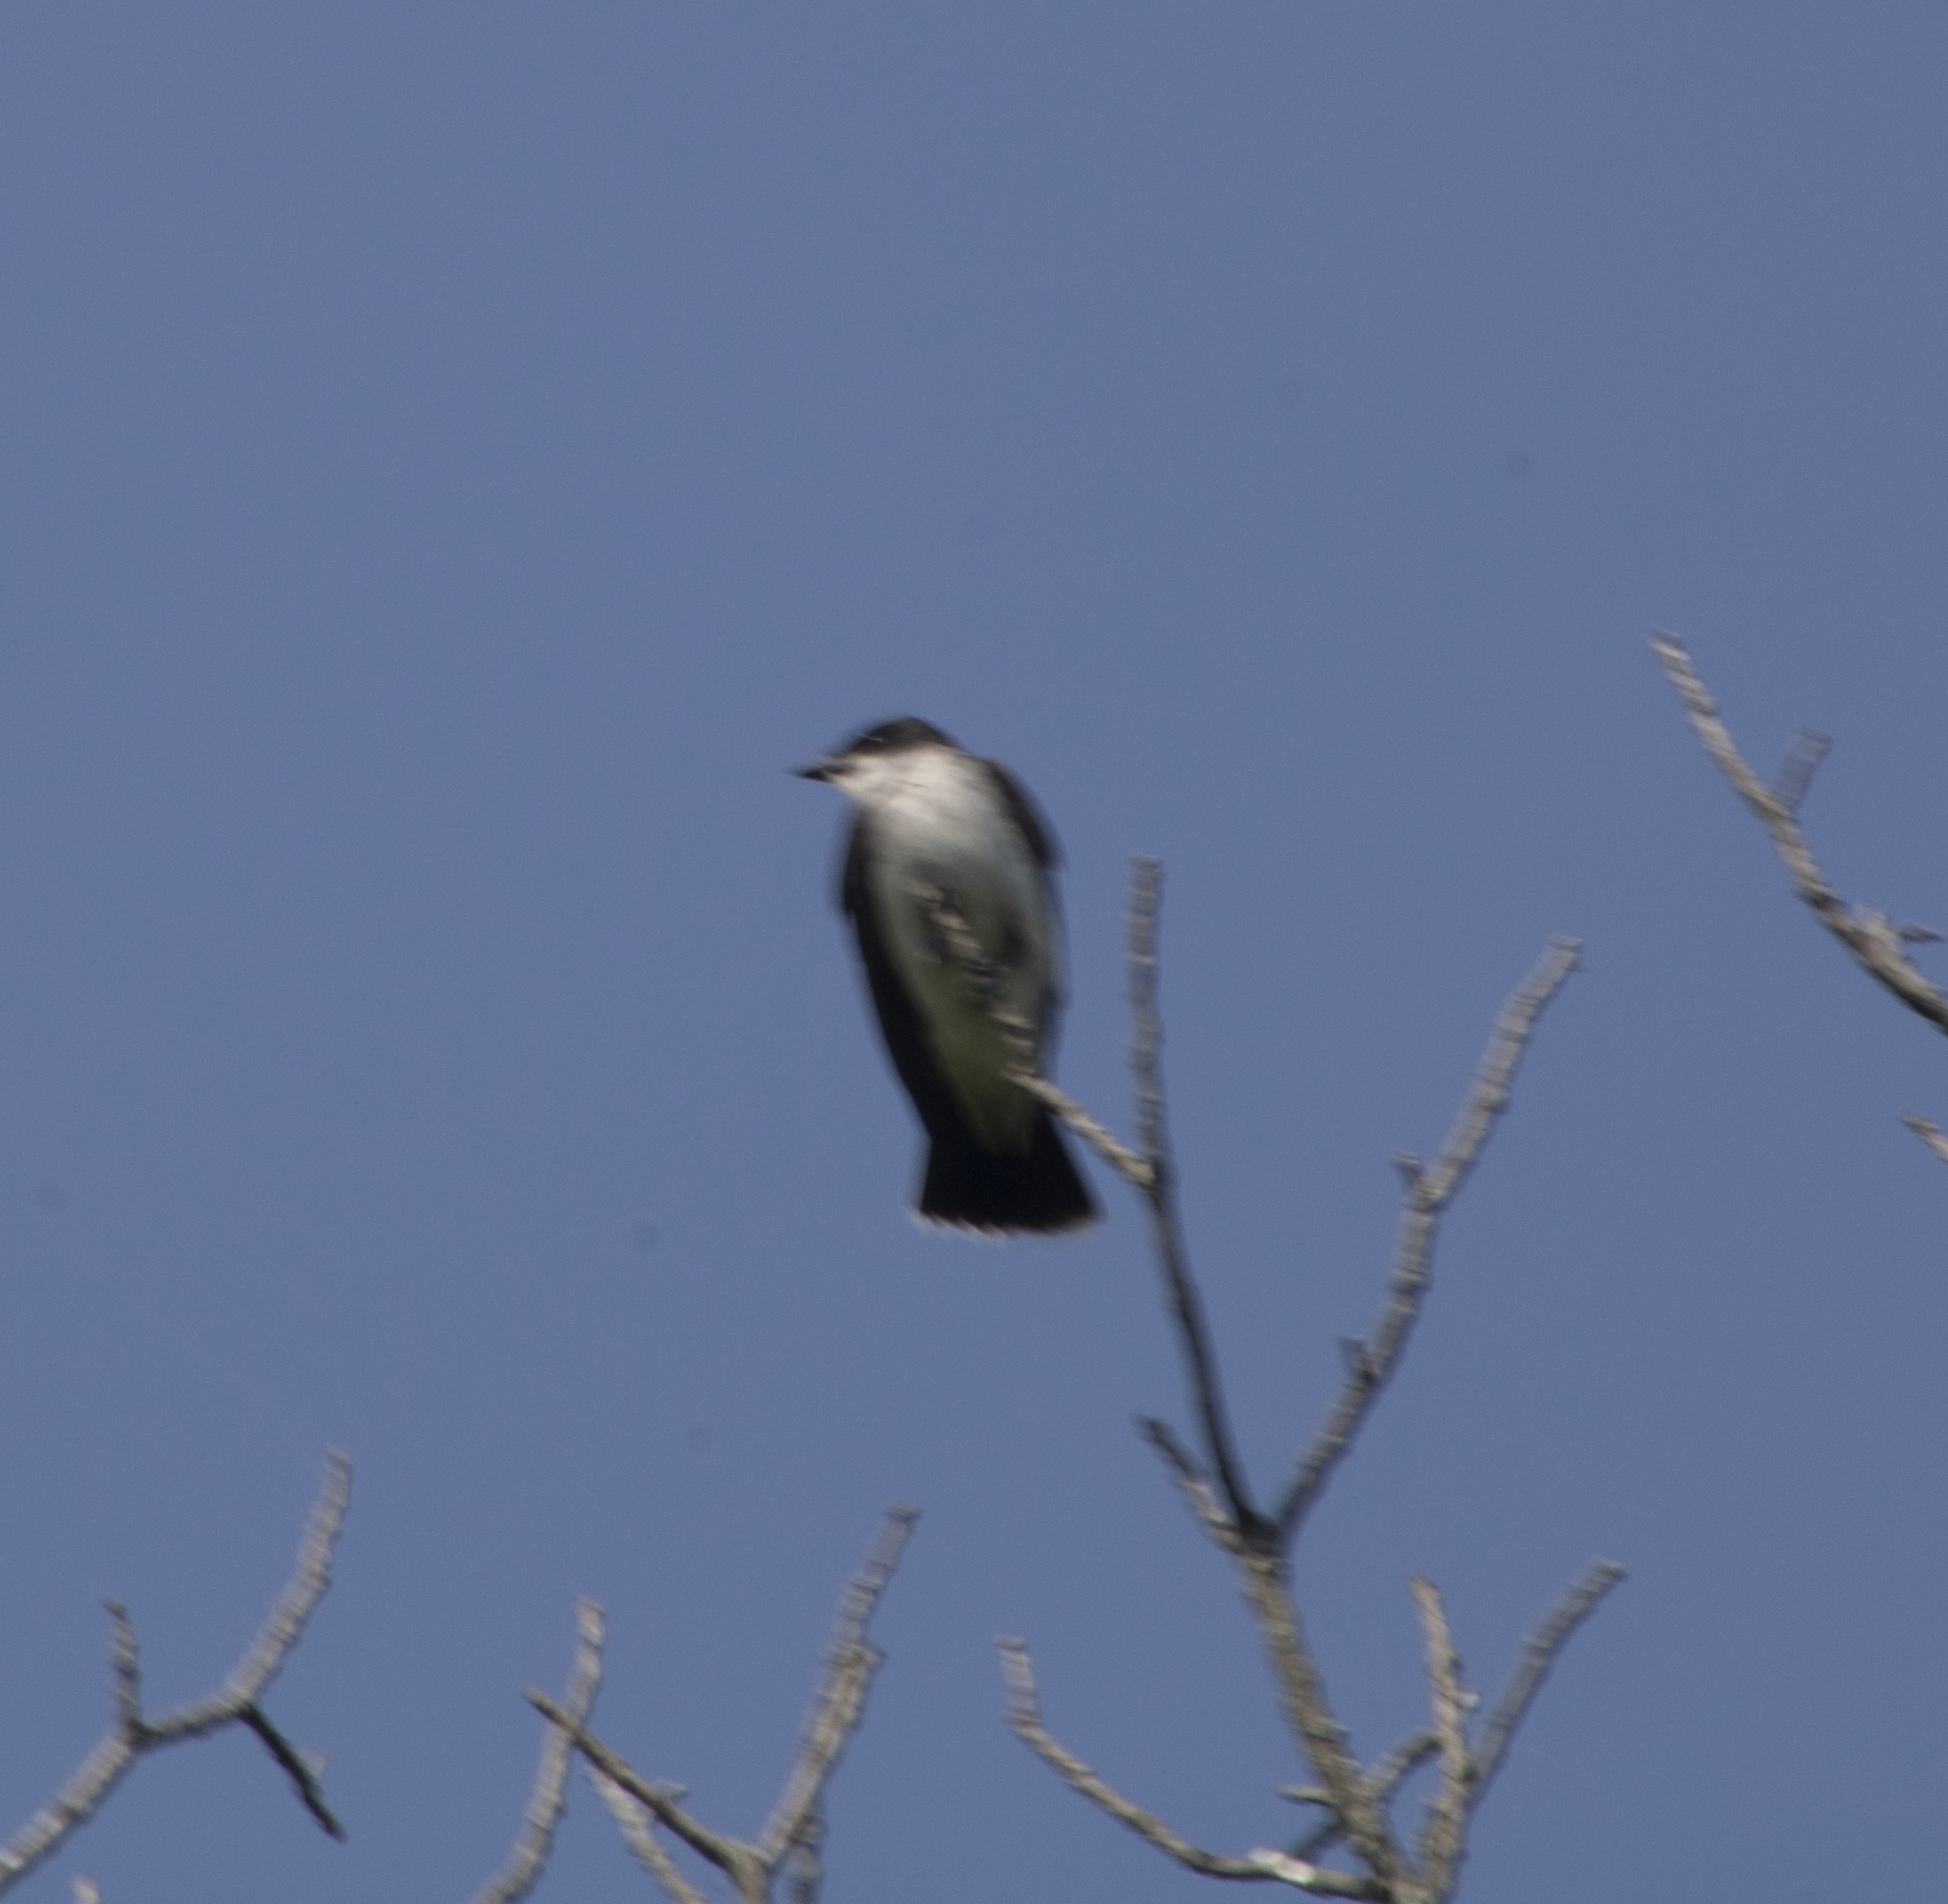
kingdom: Animalia
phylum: Chordata
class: Aves
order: Passeriformes
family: Tyrannidae
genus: Tyrannus
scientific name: Tyrannus tyrannus
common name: Eastern kingbird
